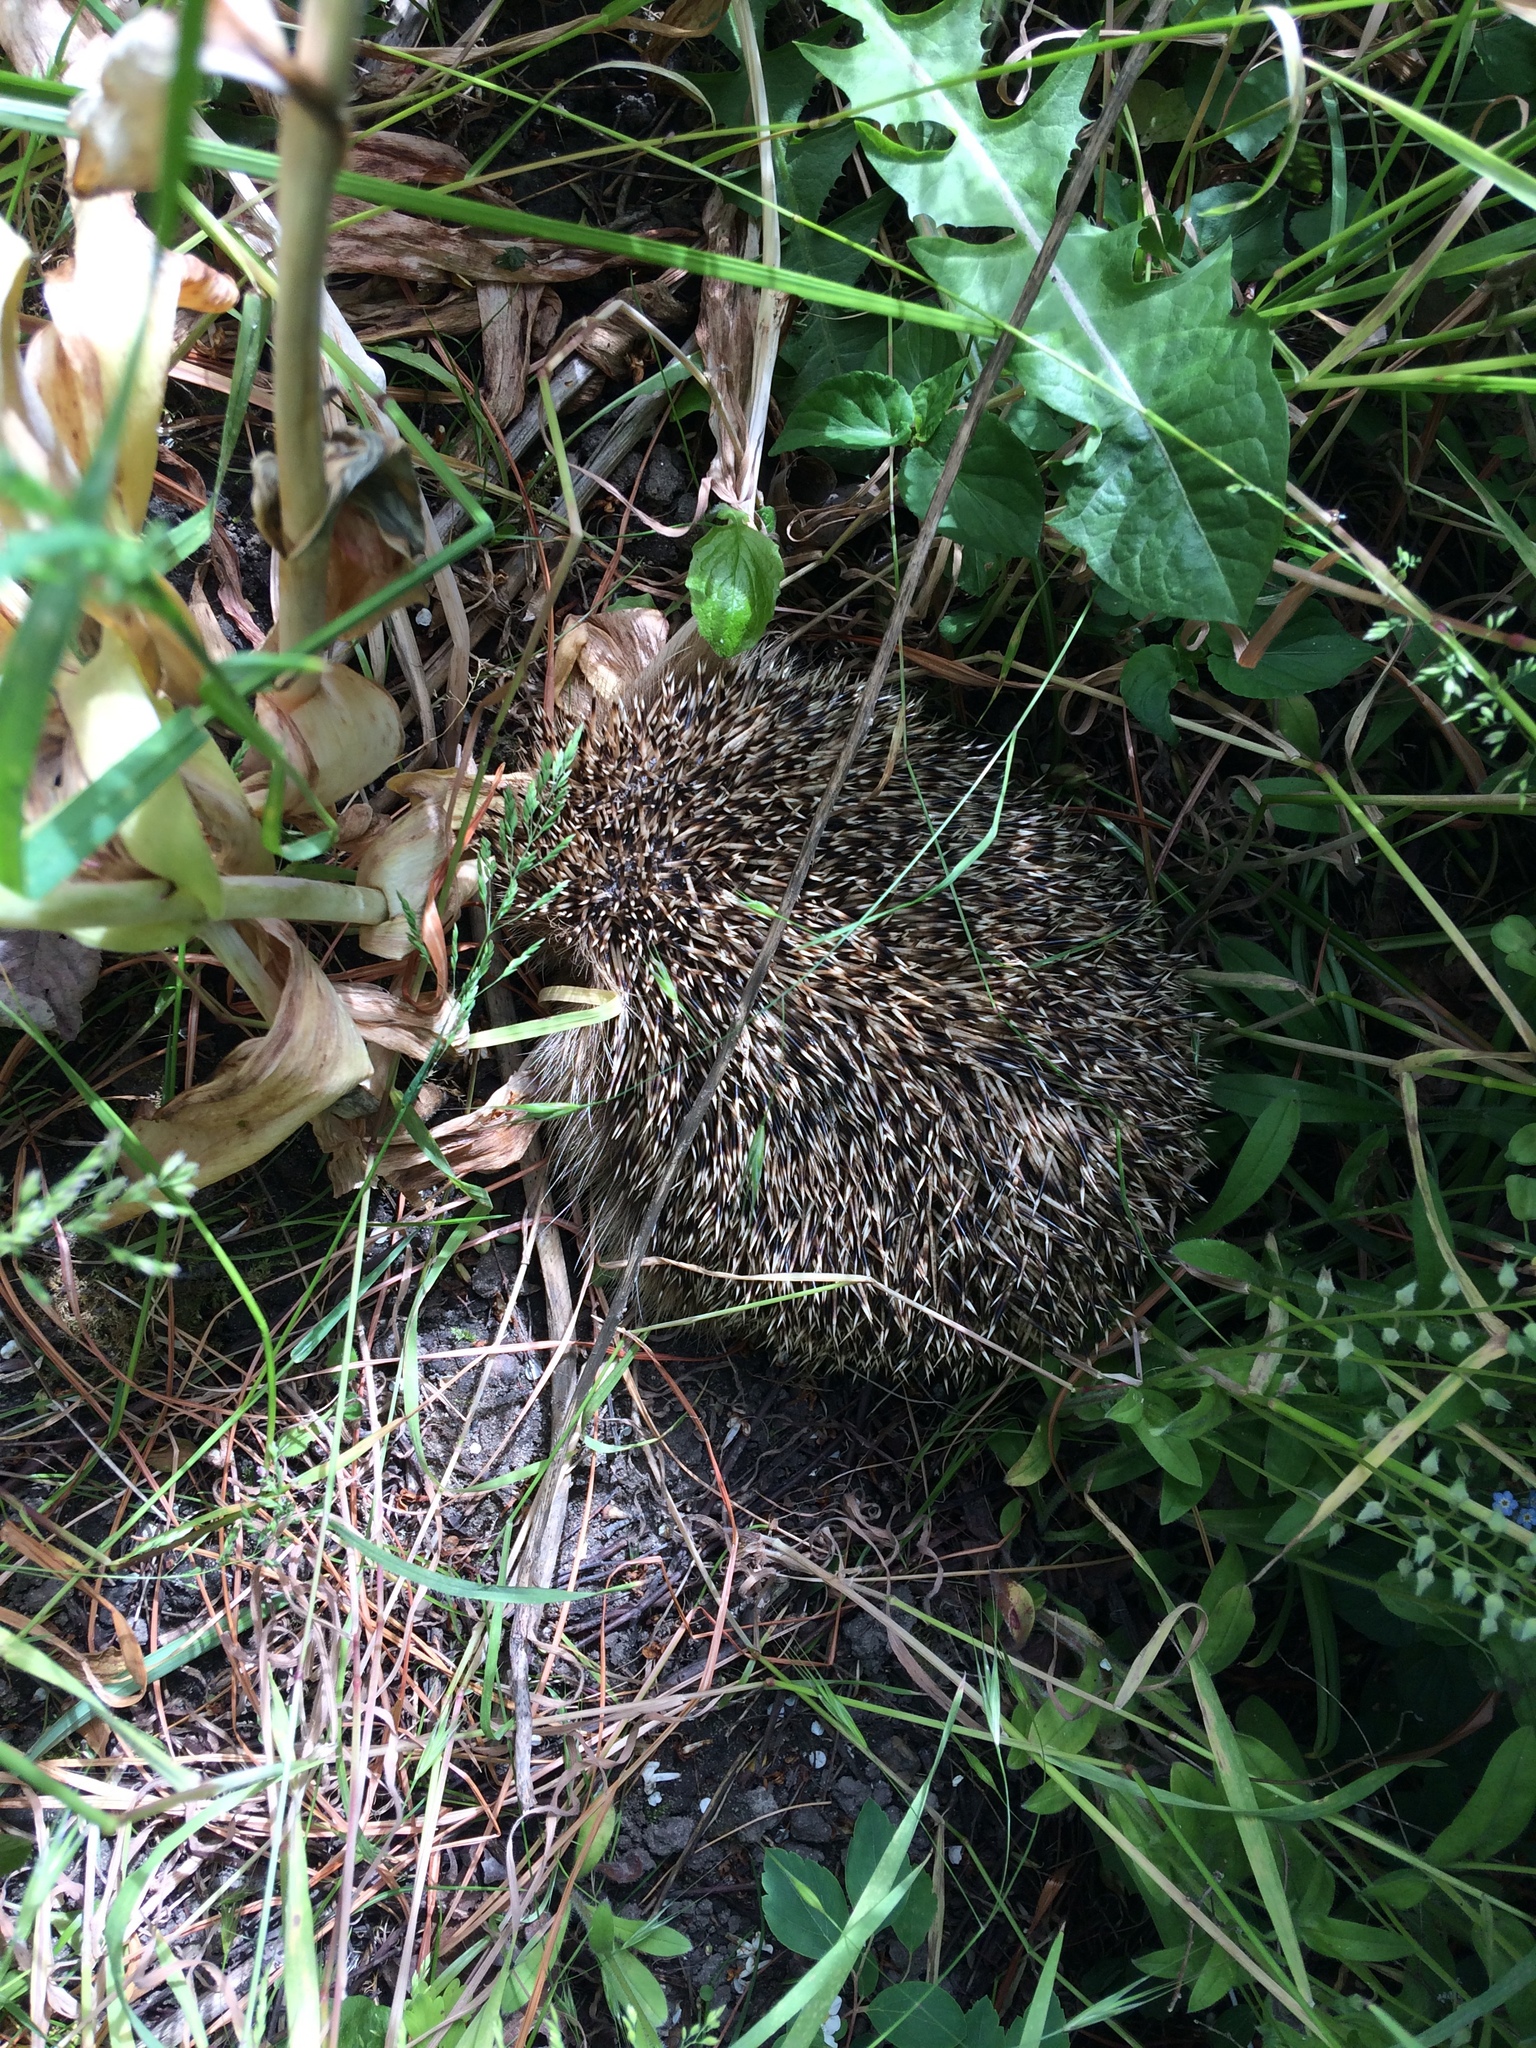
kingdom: Animalia
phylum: Chordata
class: Mammalia
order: Erinaceomorpha
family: Erinaceidae
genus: Erinaceus
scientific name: Erinaceus europaeus
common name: West european hedgehog
